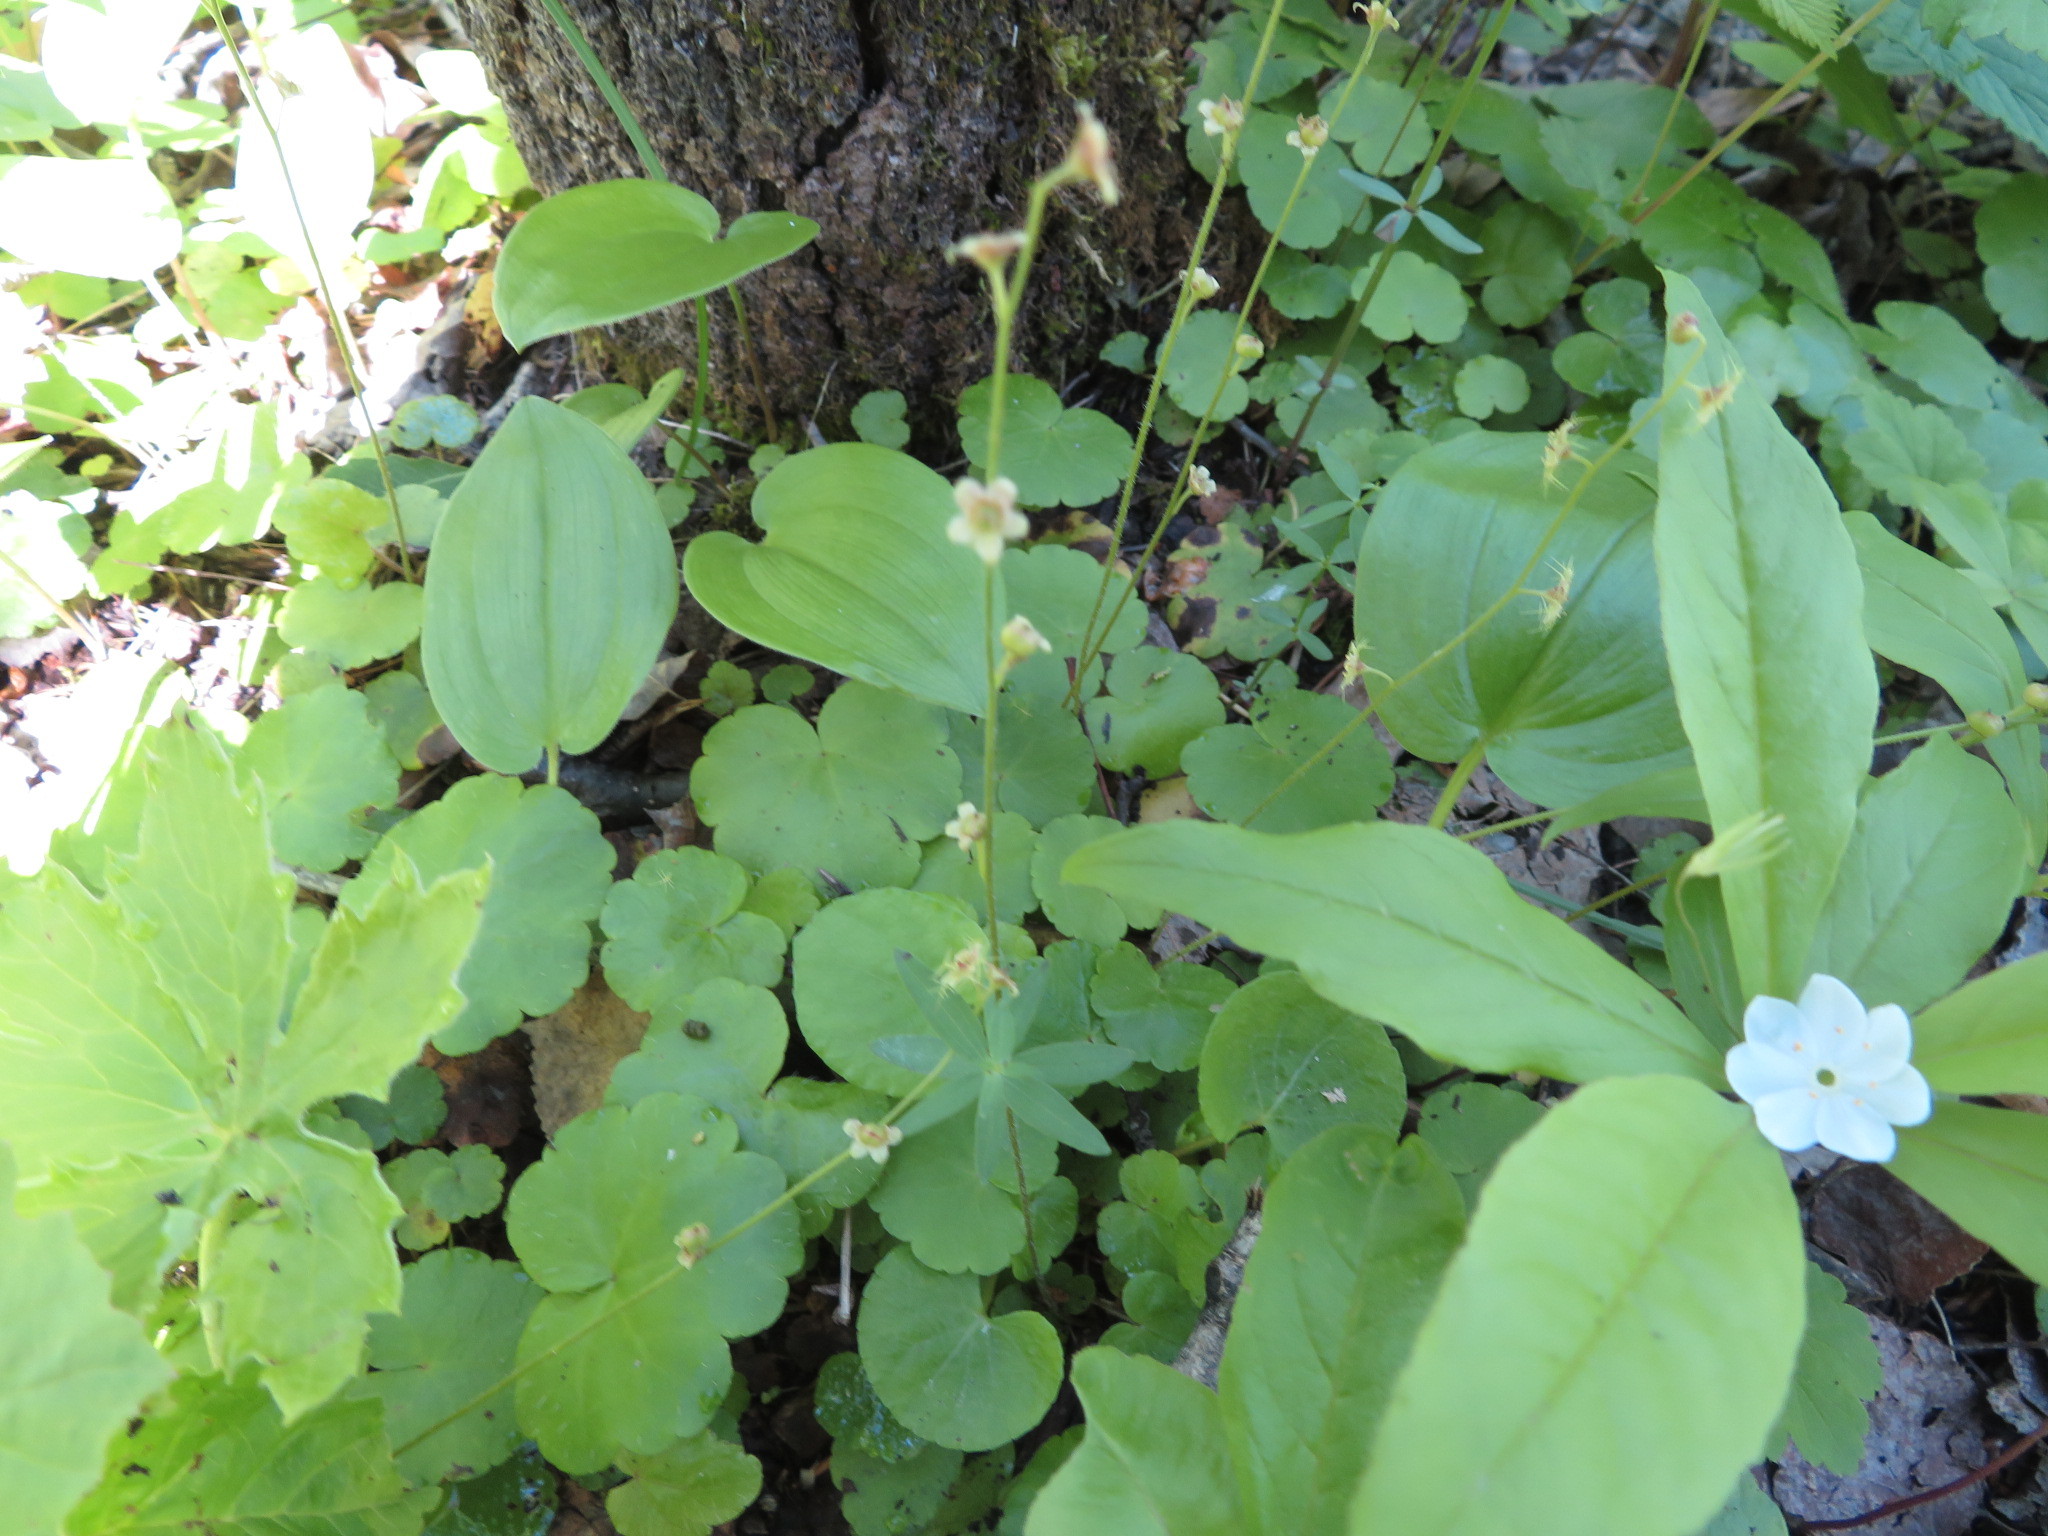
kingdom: Plantae
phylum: Tracheophyta
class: Magnoliopsida
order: Saxifragales
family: Saxifragaceae
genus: Mitella
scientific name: Mitella nuda
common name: Bare-stemmed bishop's-cap
